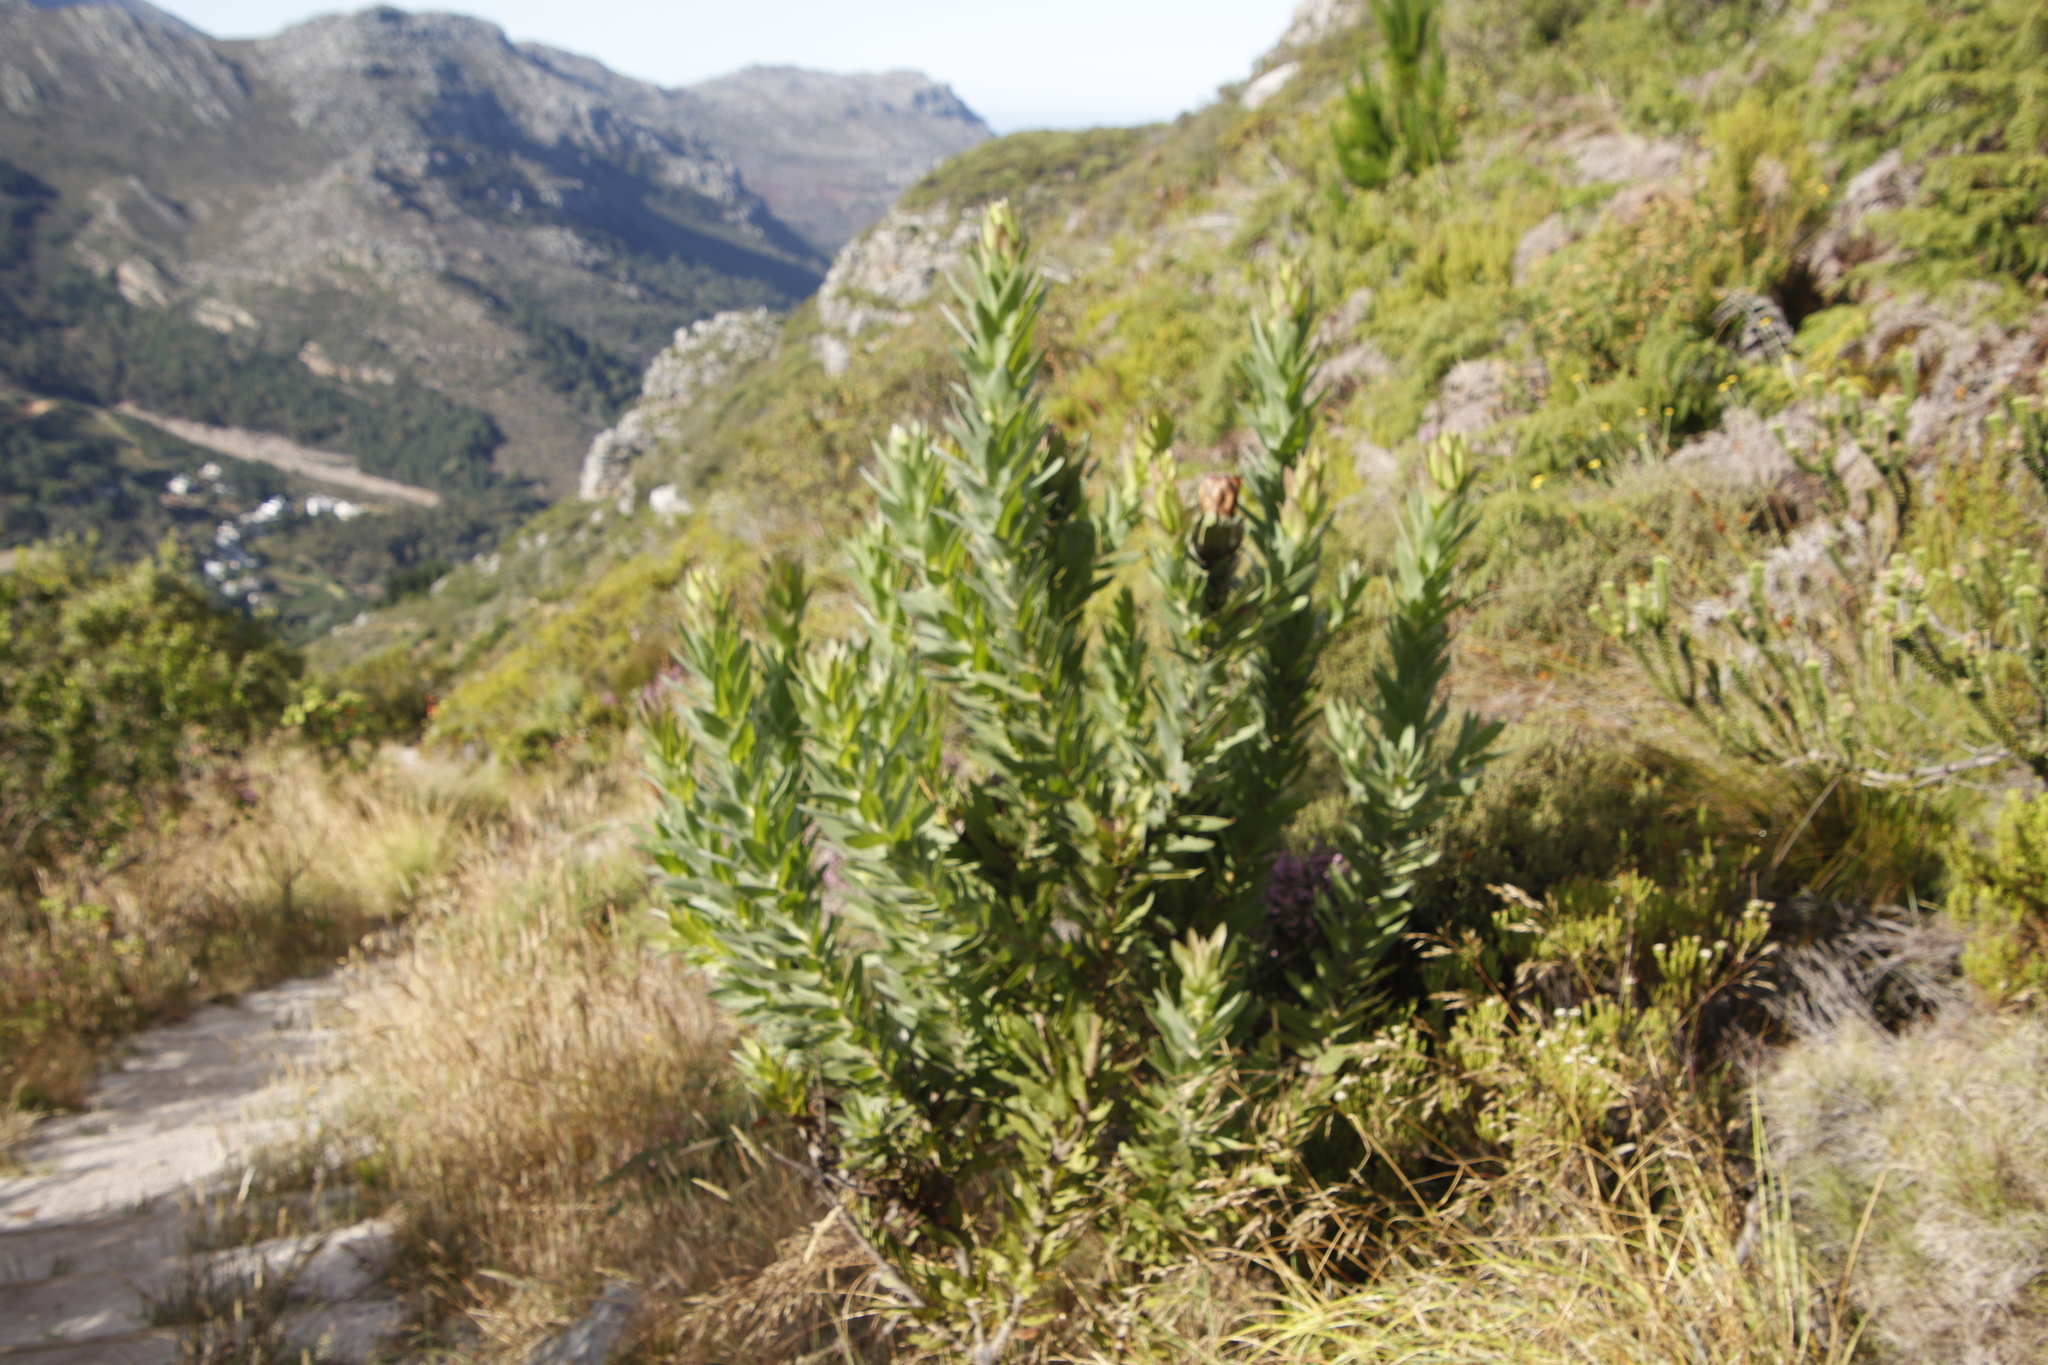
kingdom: Plantae
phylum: Tracheophyta
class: Magnoliopsida
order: Proteales
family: Proteaceae
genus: Protea
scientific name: Protea coronata
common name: Green sugarbush
